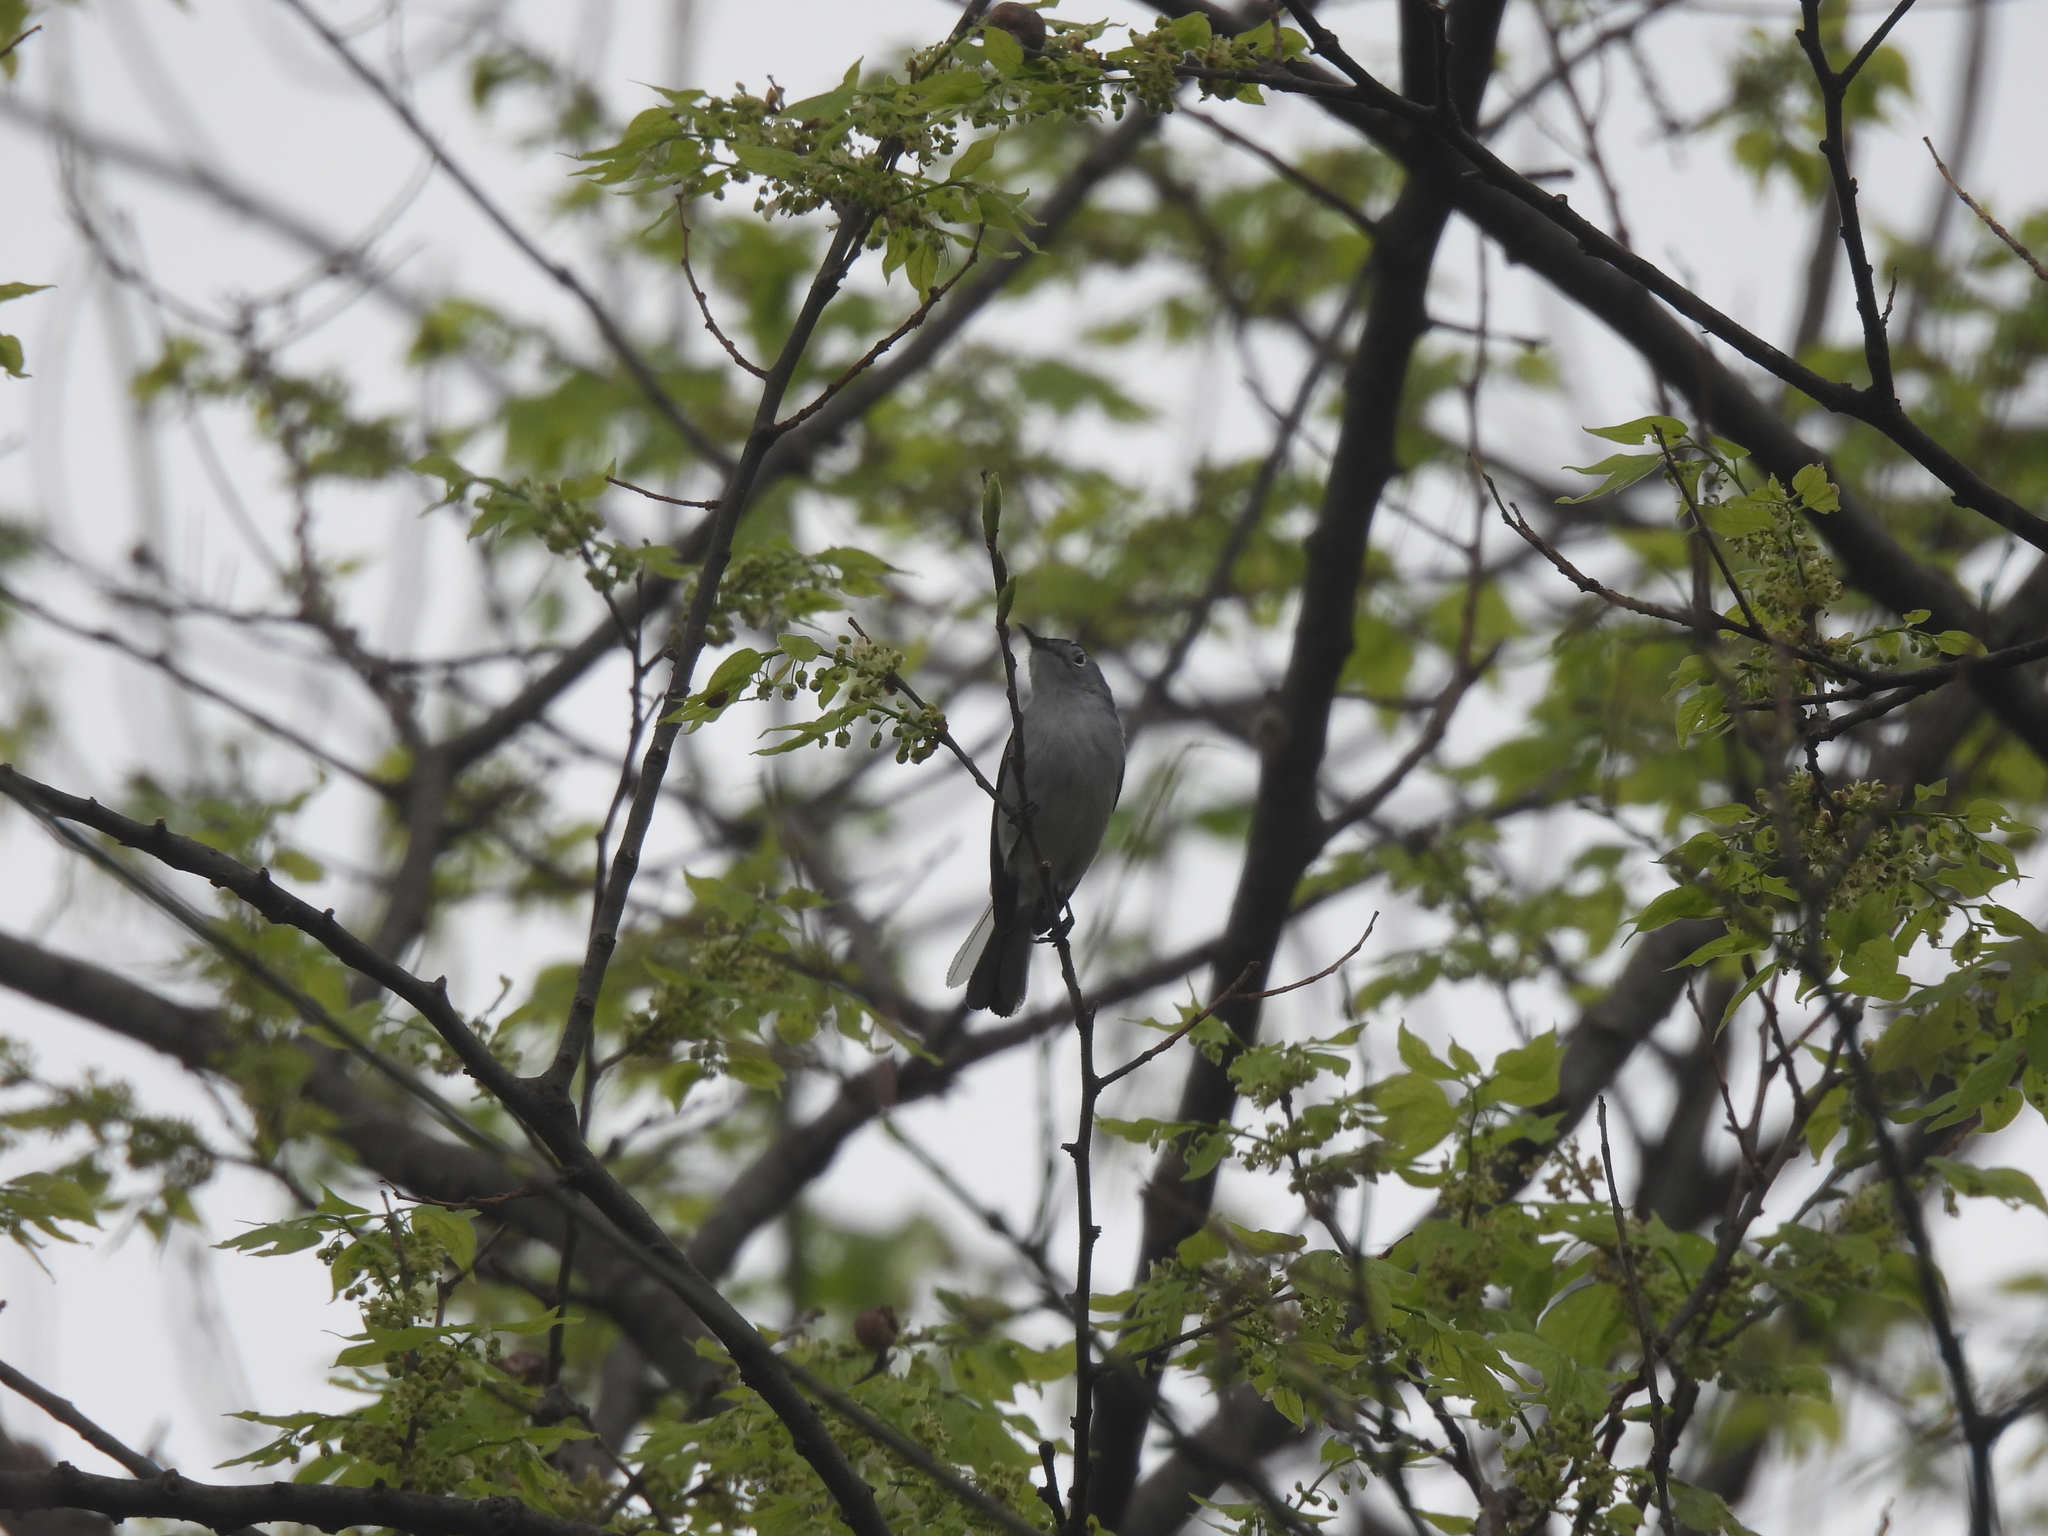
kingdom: Animalia
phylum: Chordata
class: Aves
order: Passeriformes
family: Polioptilidae
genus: Polioptila
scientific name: Polioptila caerulea
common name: Blue-gray gnatcatcher
